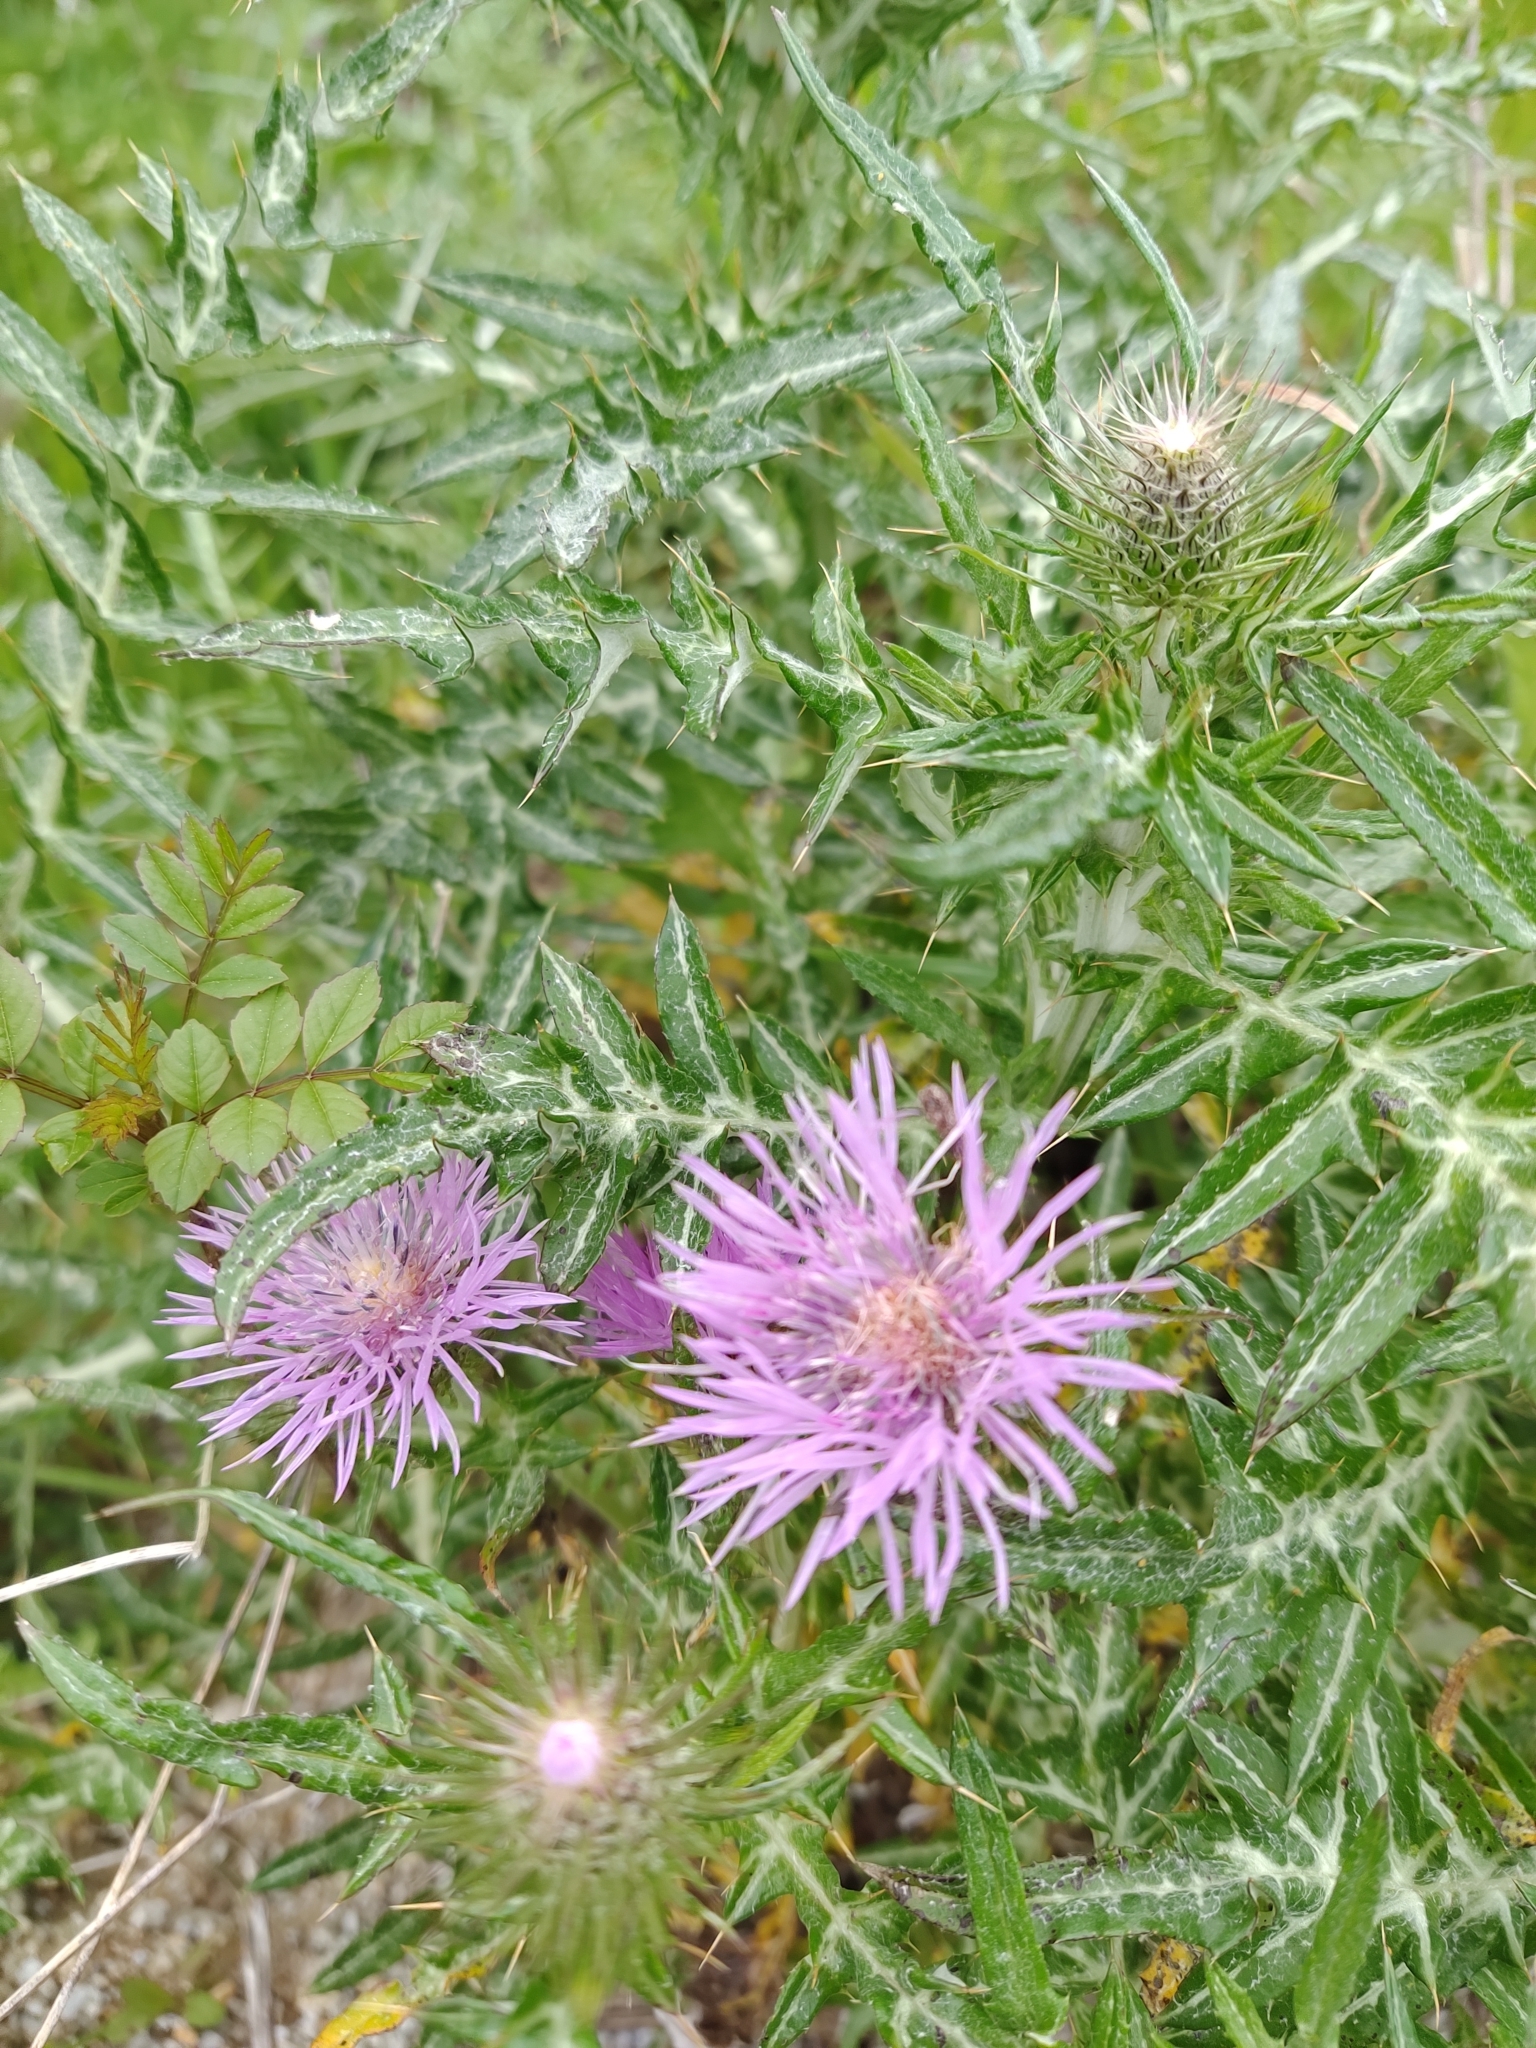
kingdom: Plantae
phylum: Tracheophyta
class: Magnoliopsida
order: Asterales
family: Asteraceae
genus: Galactites
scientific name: Galactites tomentosa
